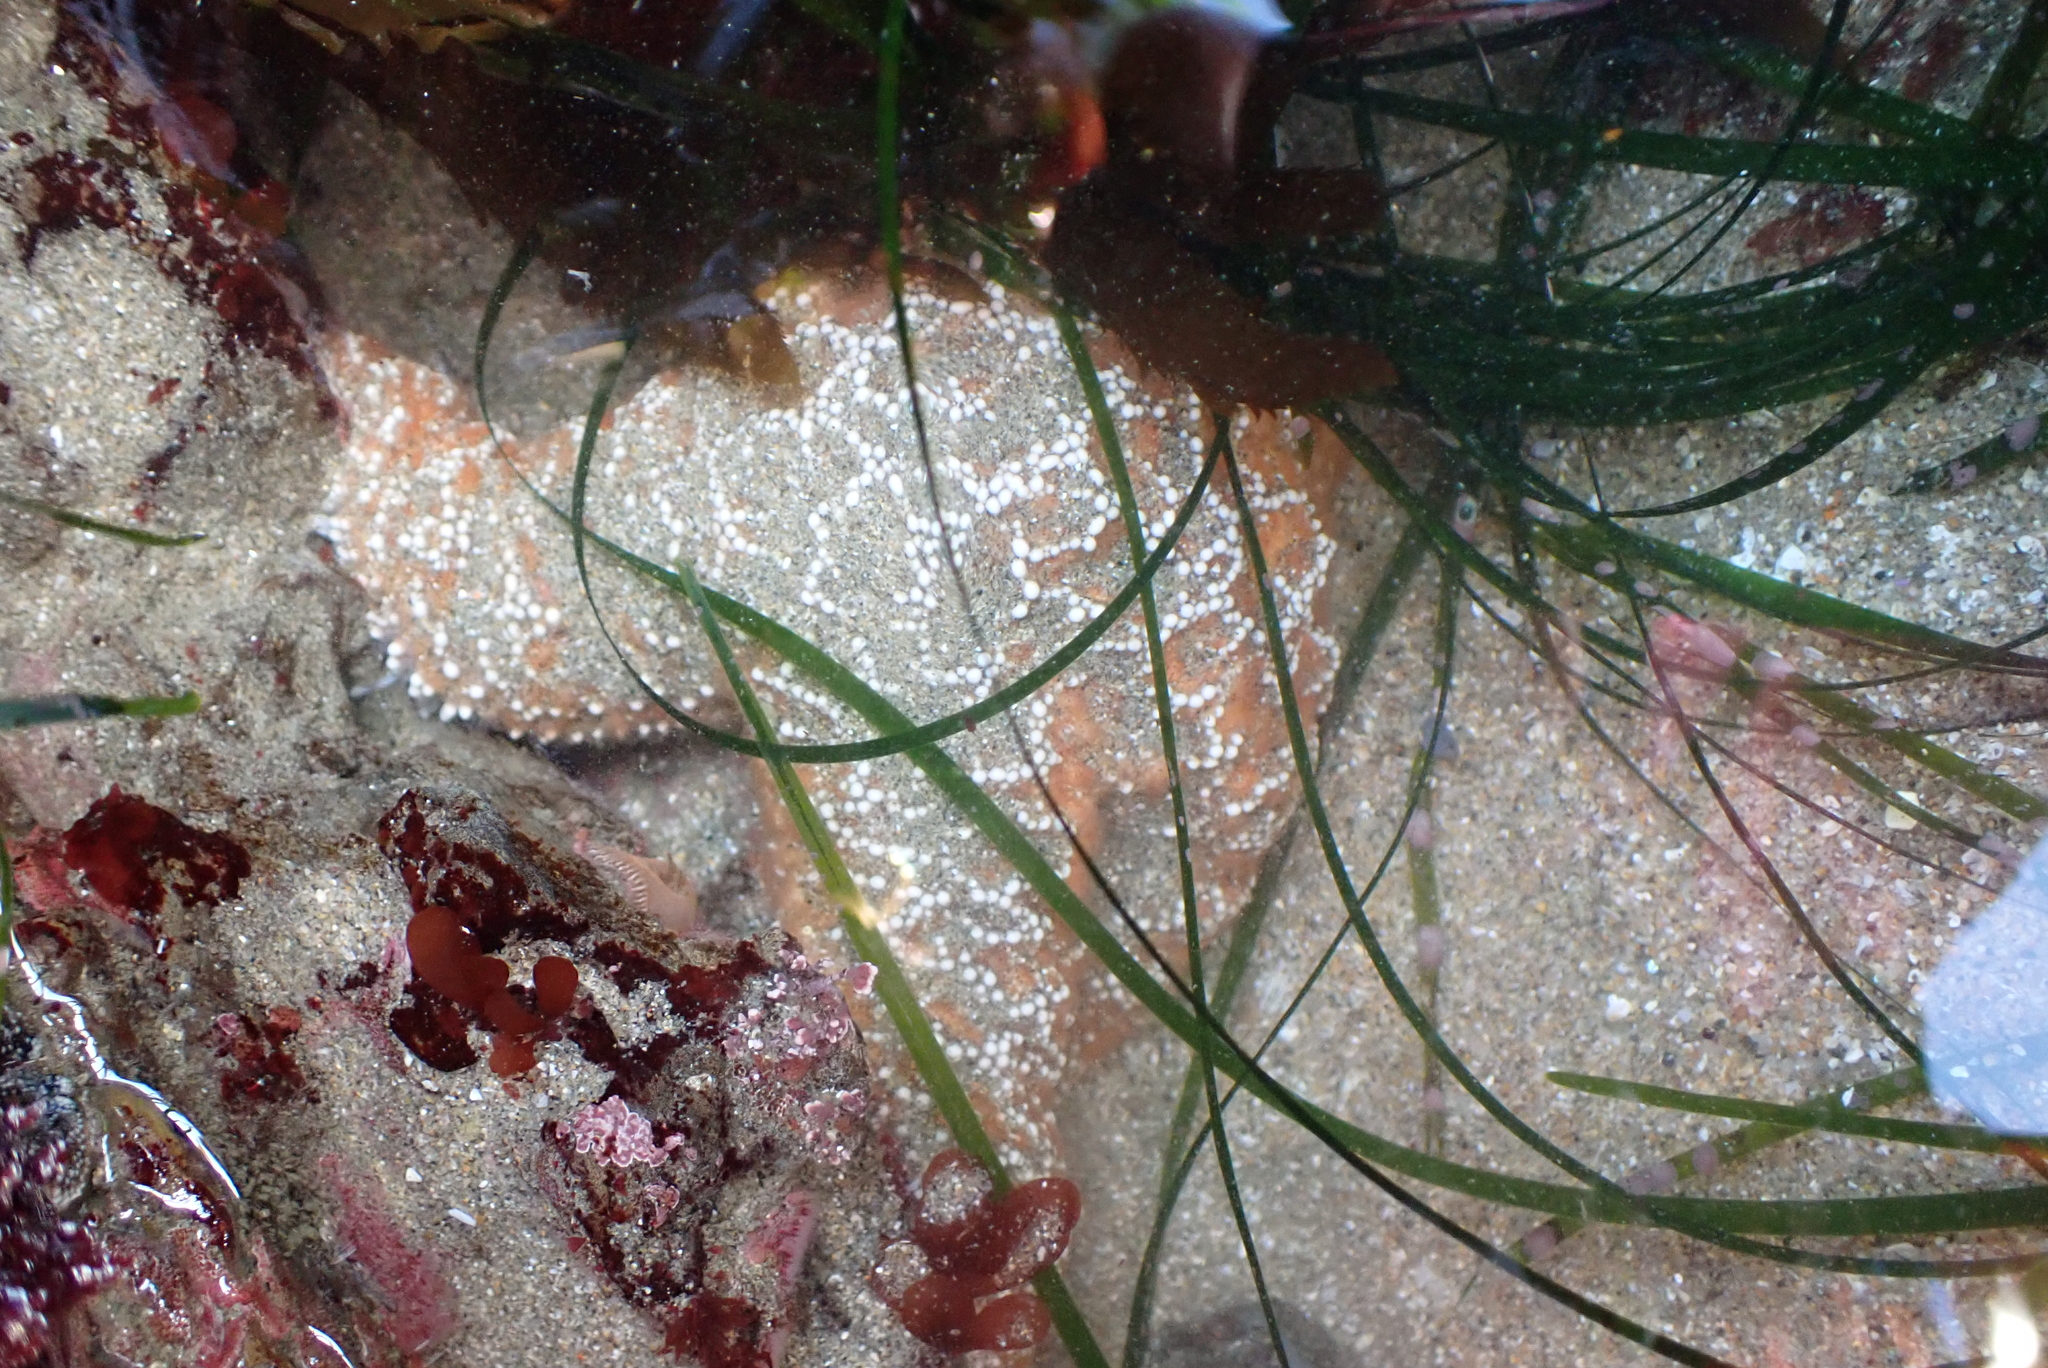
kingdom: Animalia
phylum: Echinodermata
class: Asteroidea
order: Forcipulatida
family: Asteriidae
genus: Pisaster
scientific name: Pisaster ochraceus
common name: Ochre stars
